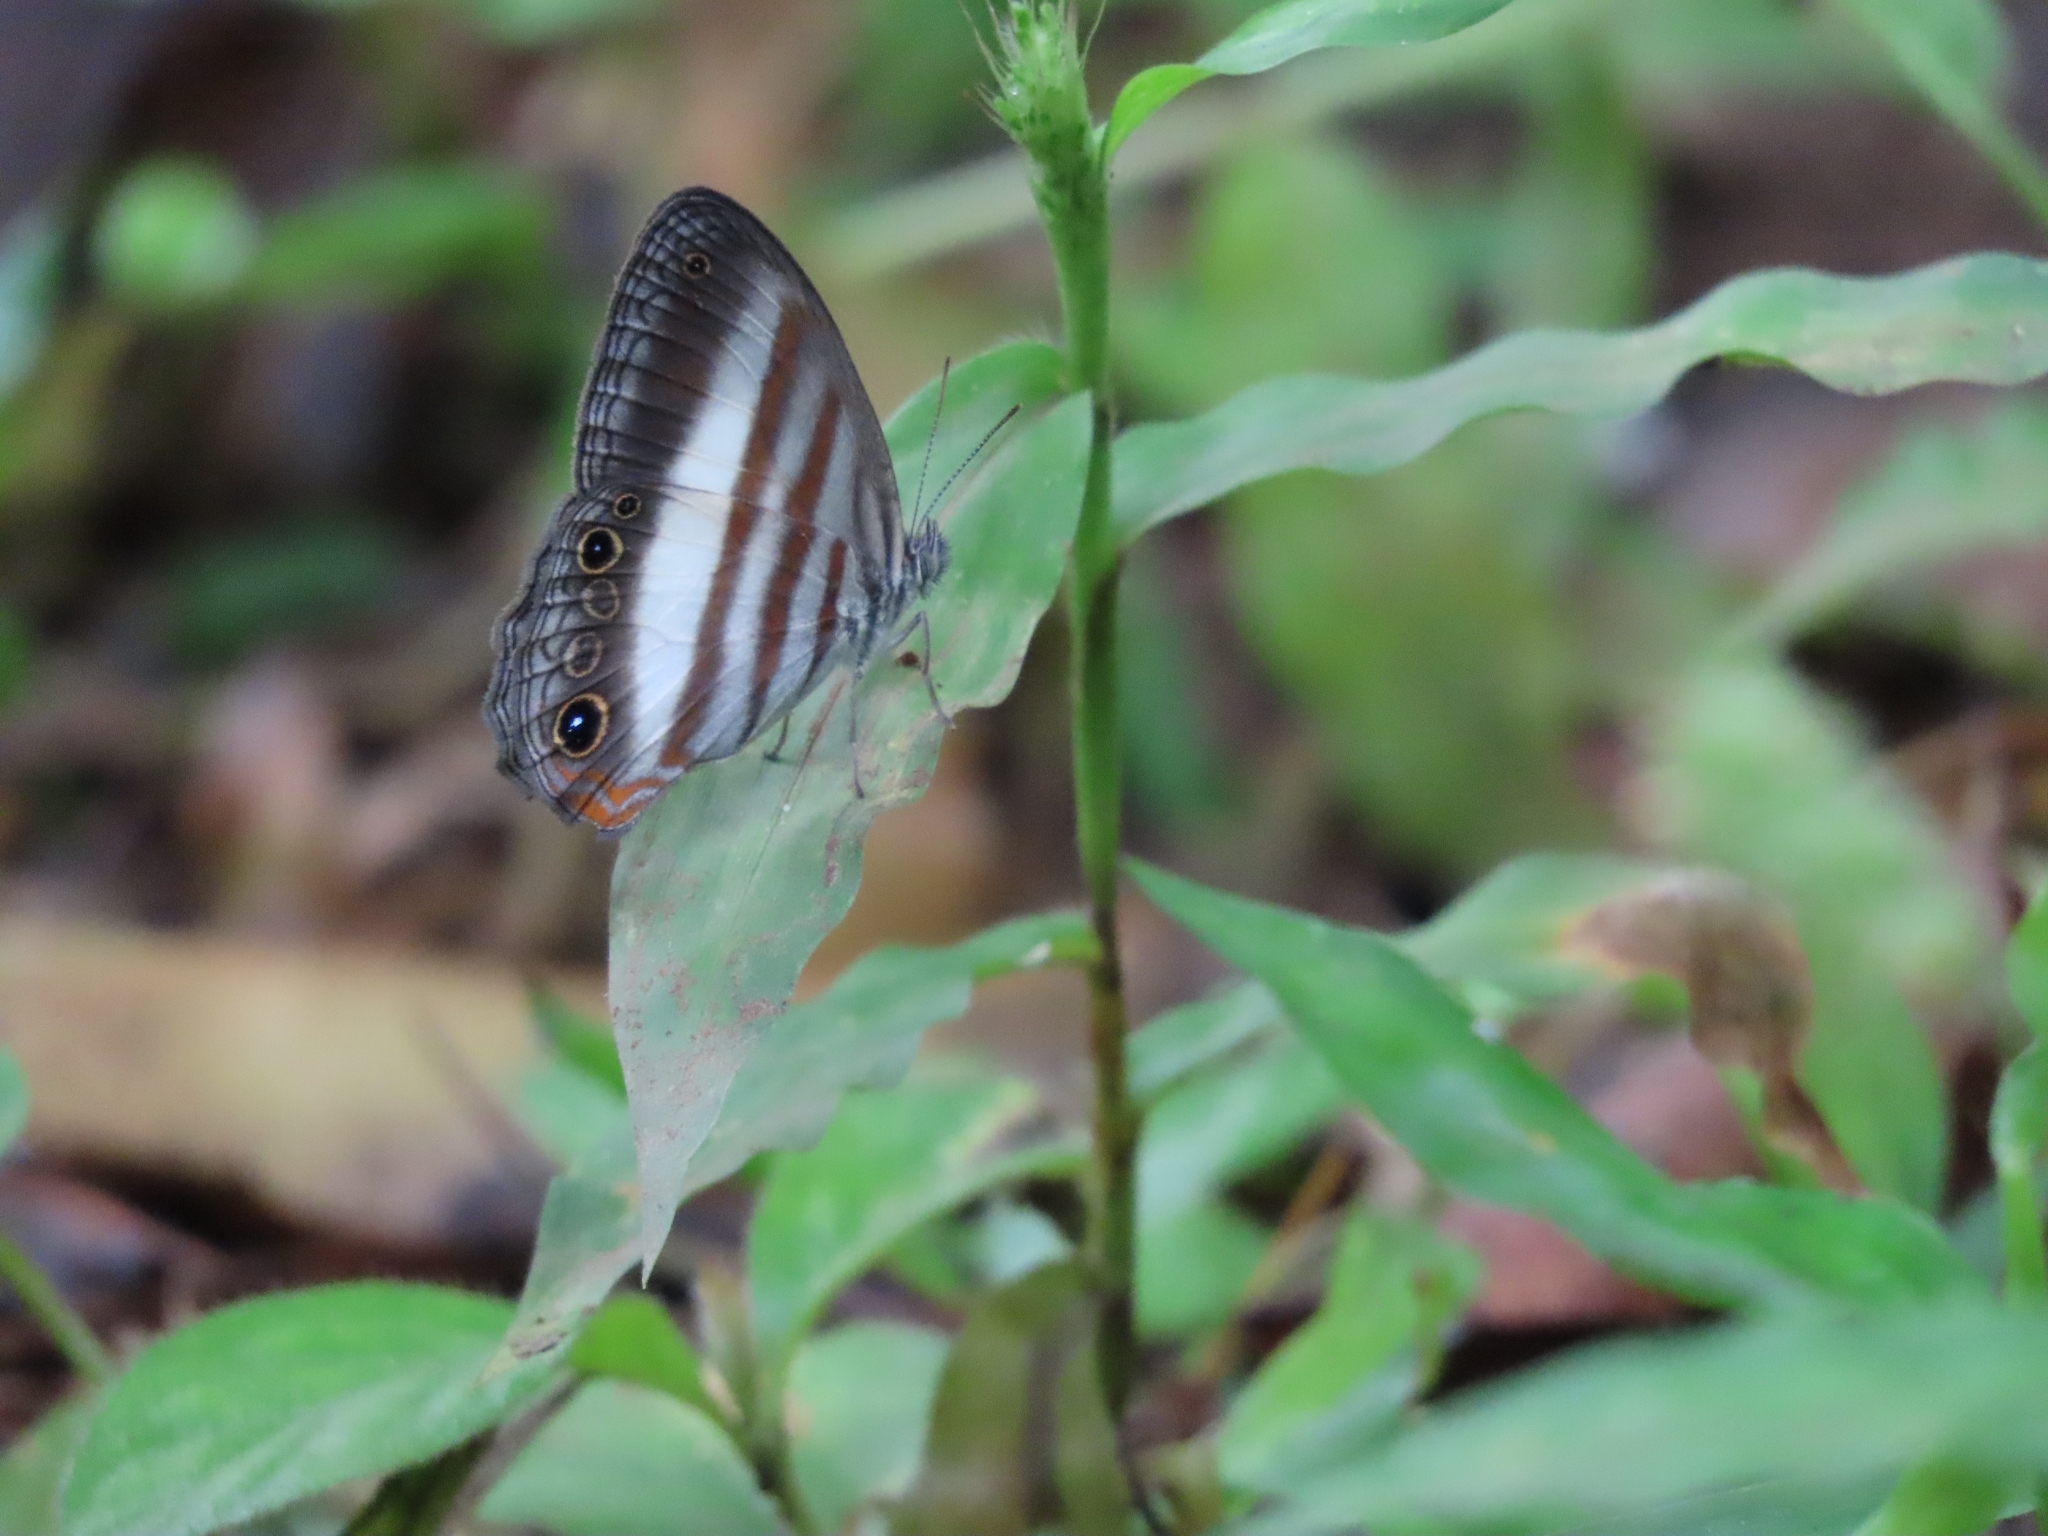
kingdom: Animalia
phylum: Arthropoda
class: Insecta
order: Lepidoptera
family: Nymphalidae
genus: Pareuptychia
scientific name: Pareuptychia hesione
